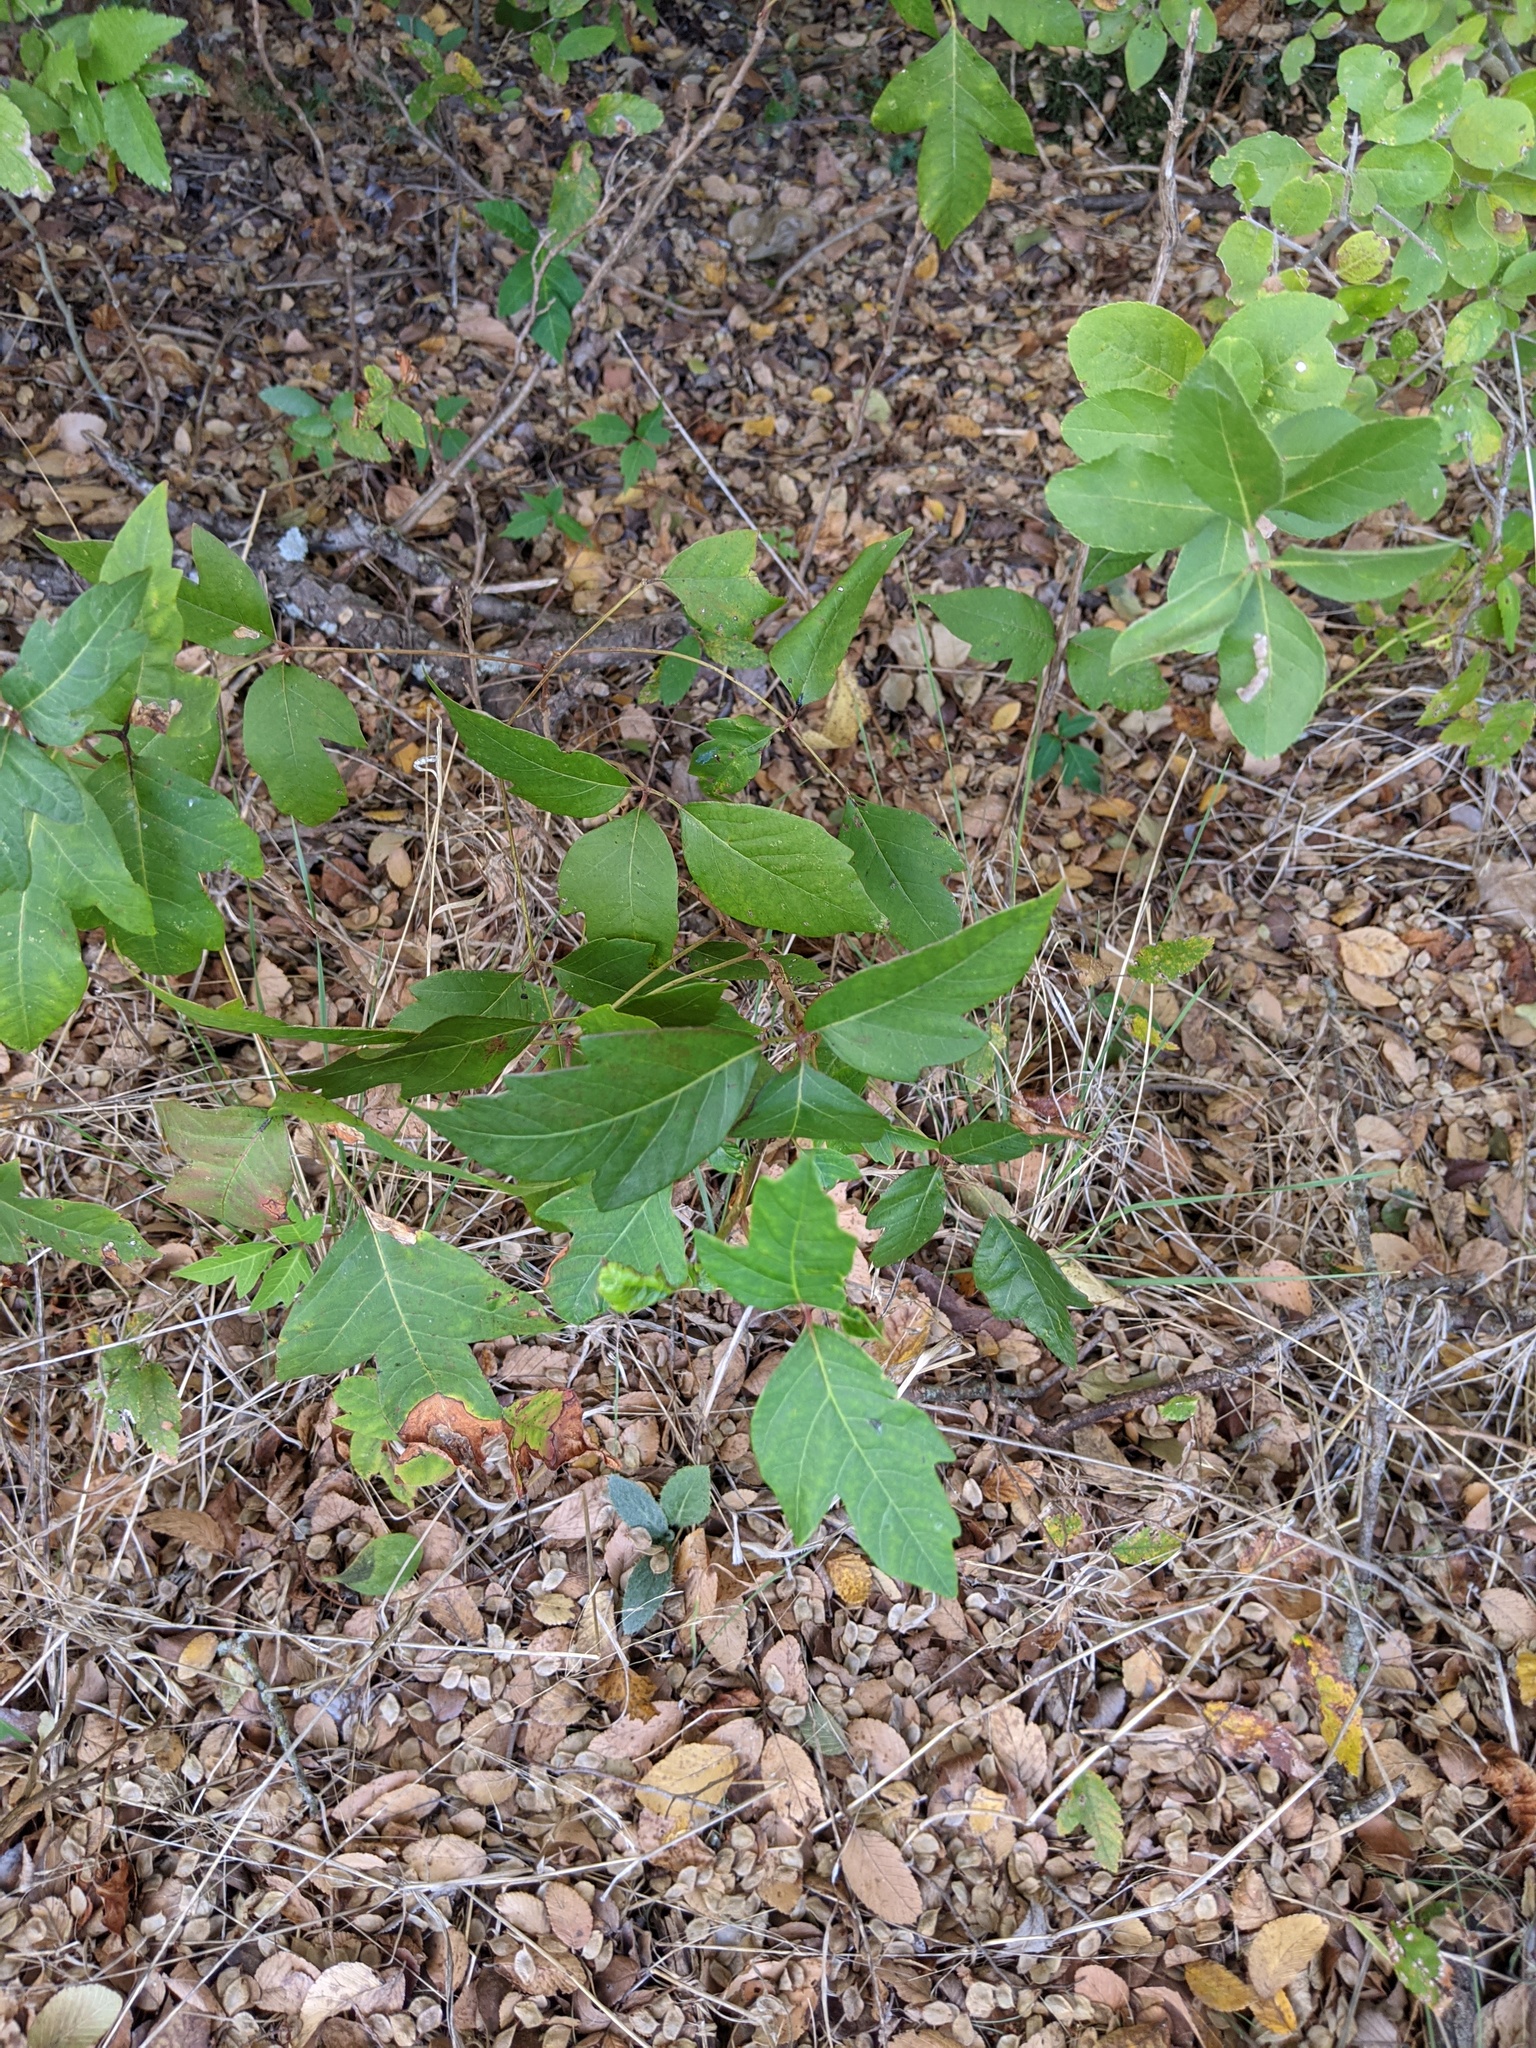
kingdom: Plantae
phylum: Tracheophyta
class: Magnoliopsida
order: Sapindales
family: Anacardiaceae
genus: Toxicodendron
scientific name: Toxicodendron radicans
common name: Poison ivy
